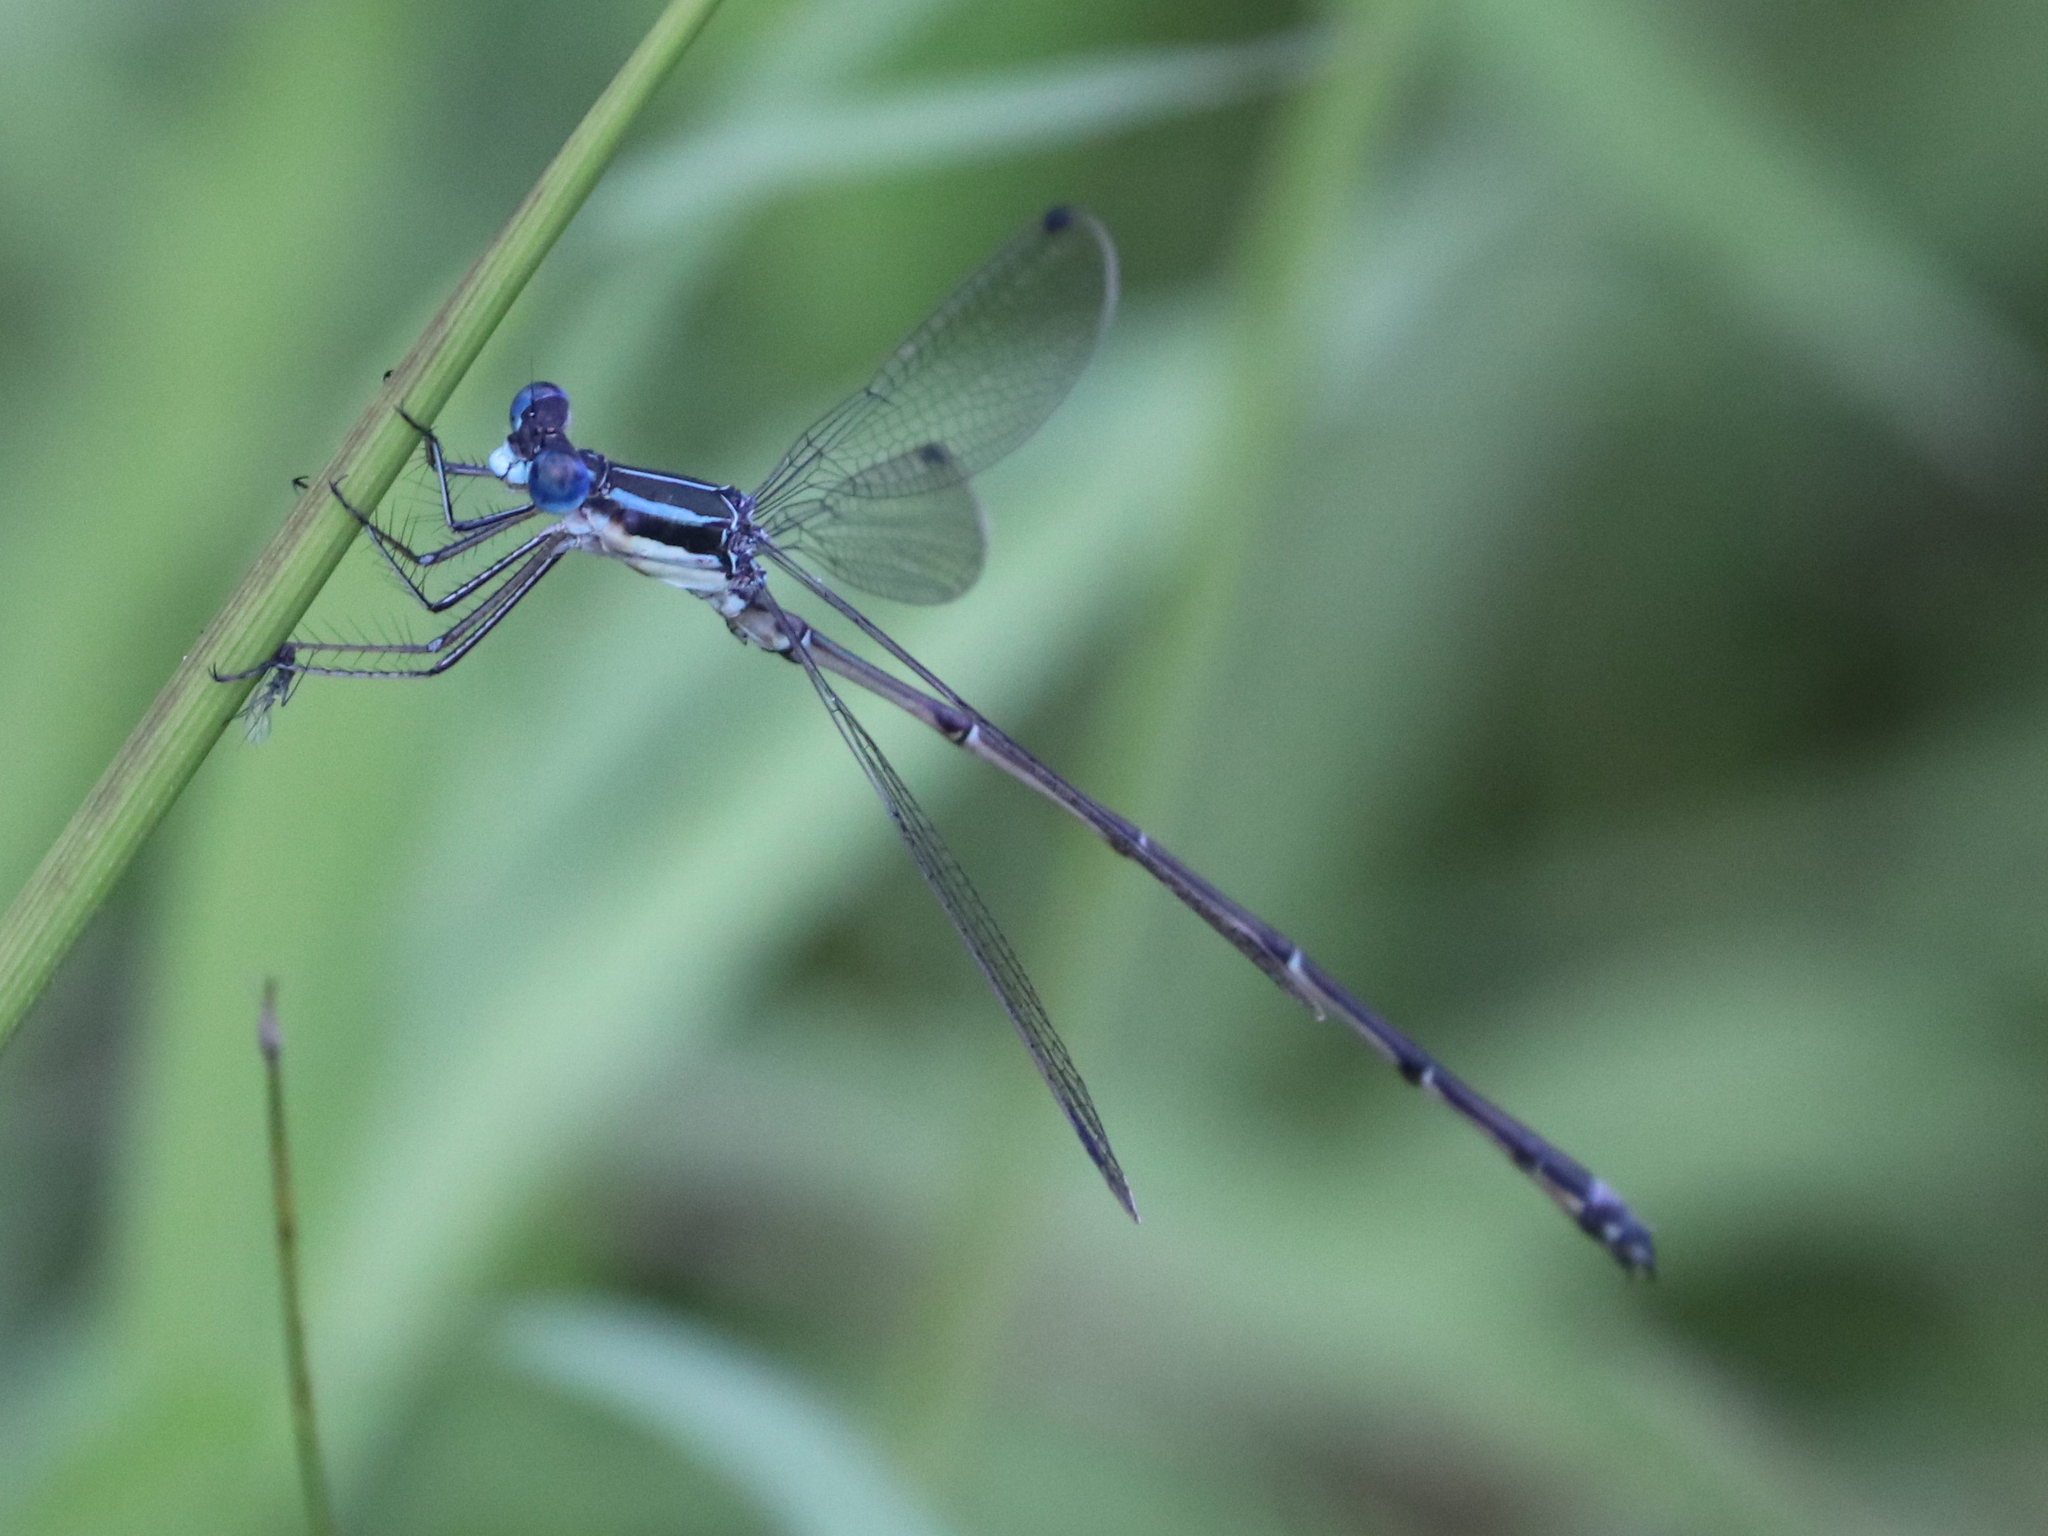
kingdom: Animalia
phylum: Arthropoda
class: Insecta
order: Odonata
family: Lestidae
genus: Lestes
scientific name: Lestes rectangularis
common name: Slender spreadwing
